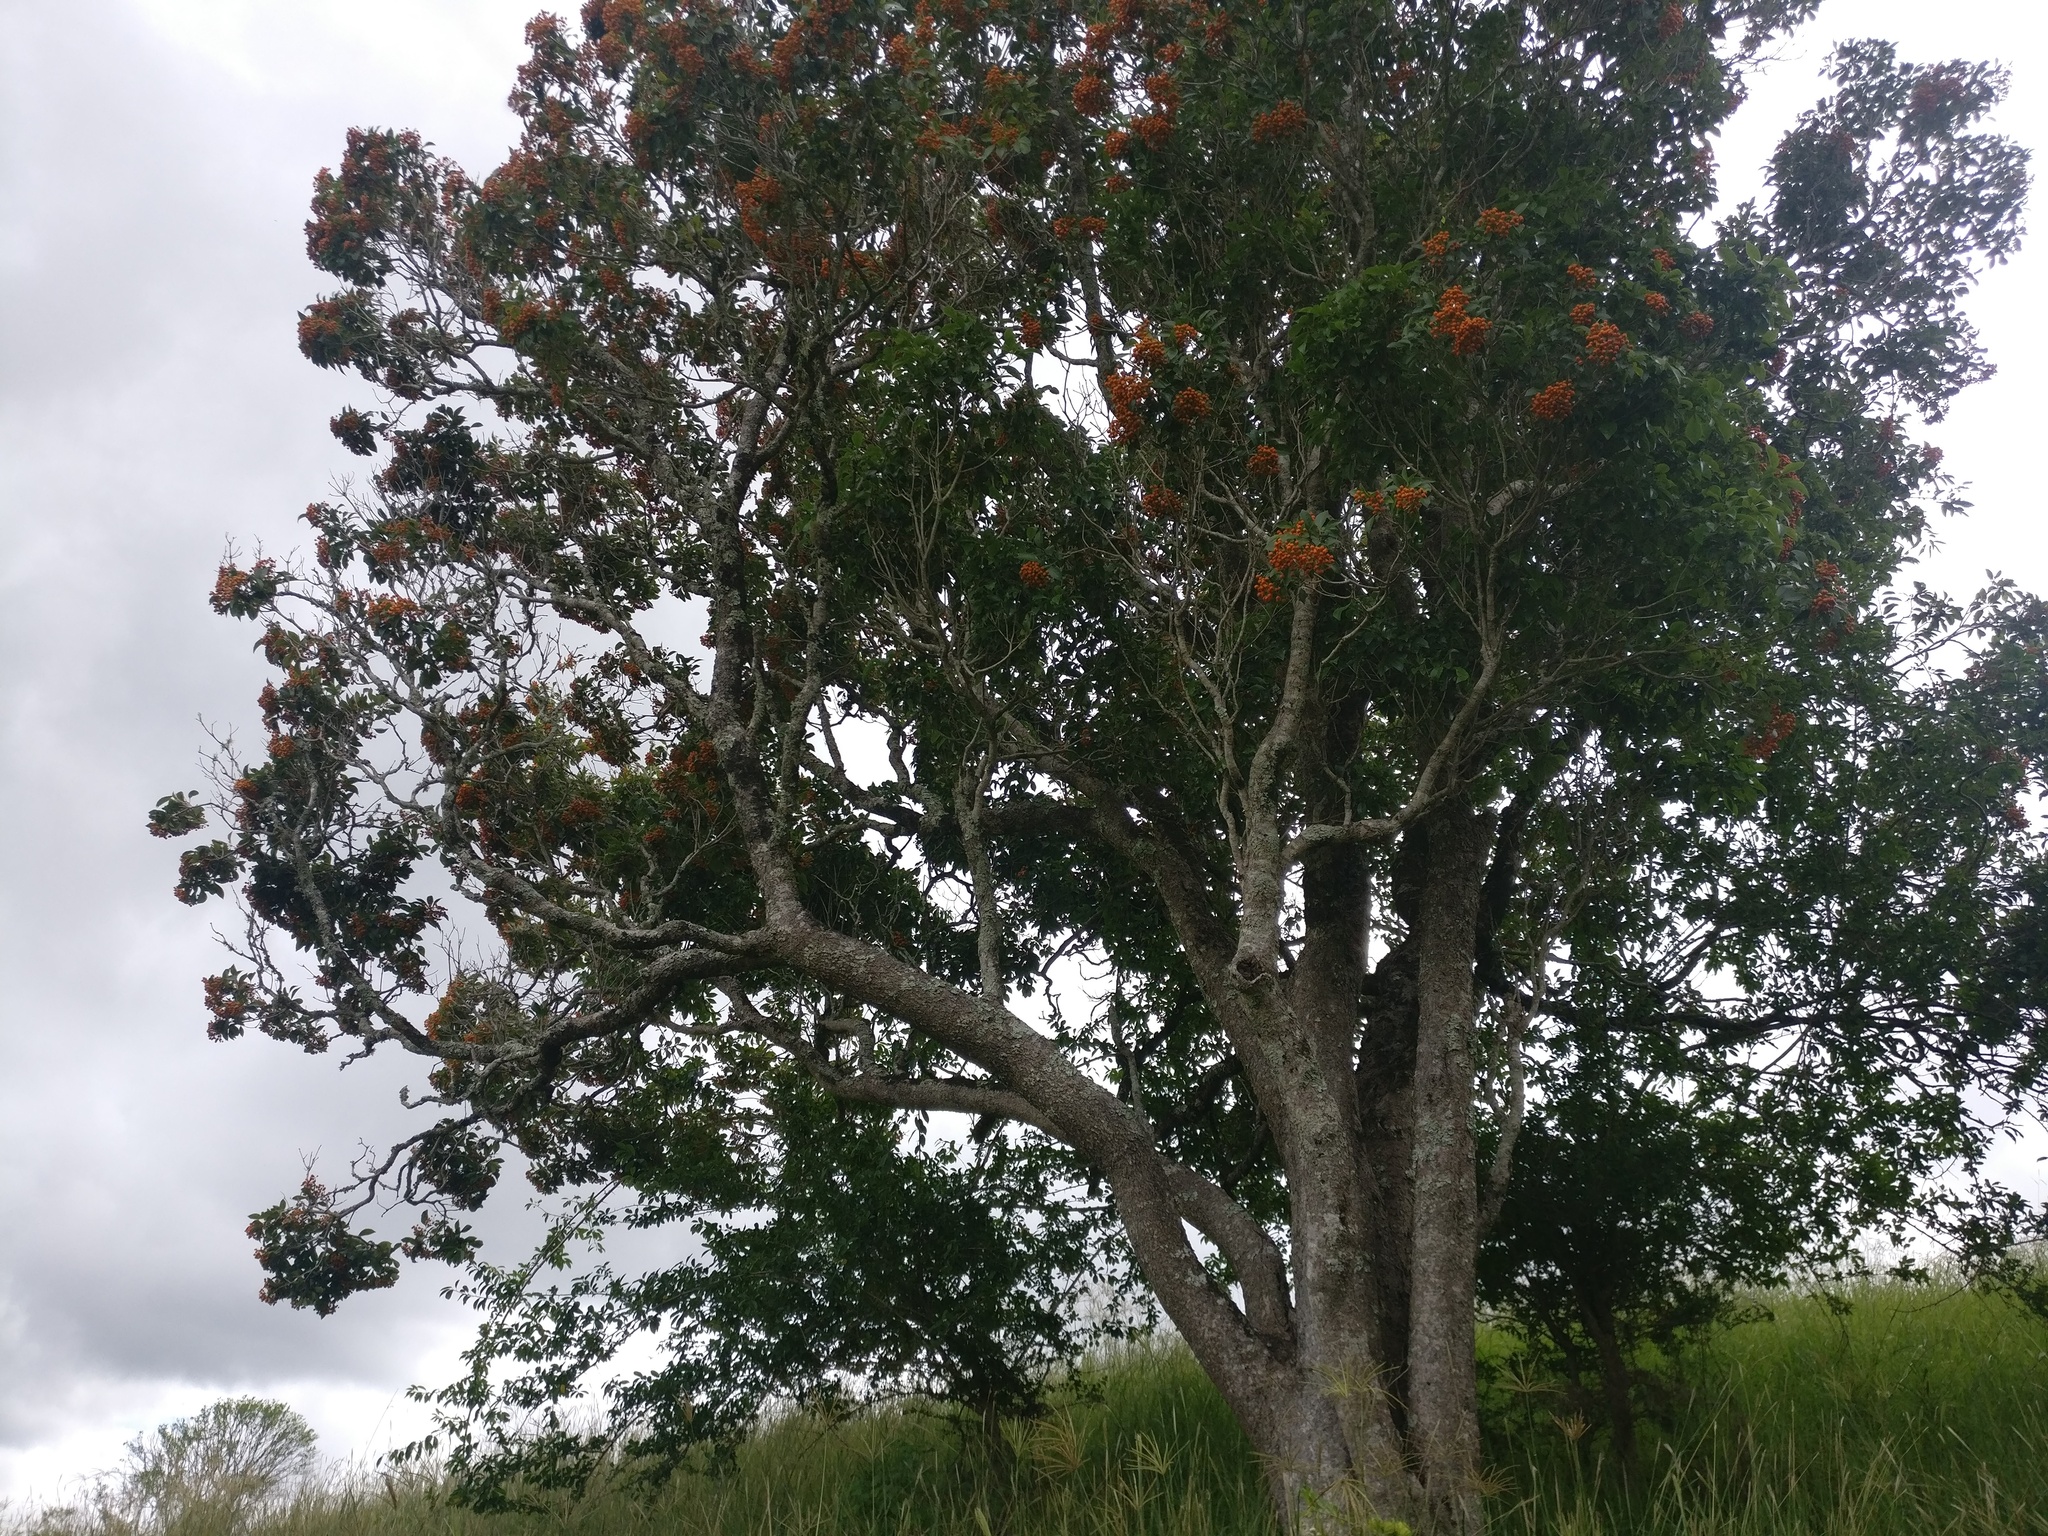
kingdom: Plantae
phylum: Tracheophyta
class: Magnoliopsida
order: Apiales
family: Pittosporaceae
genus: Auranticarpa
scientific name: Auranticarpa rhombifolia
